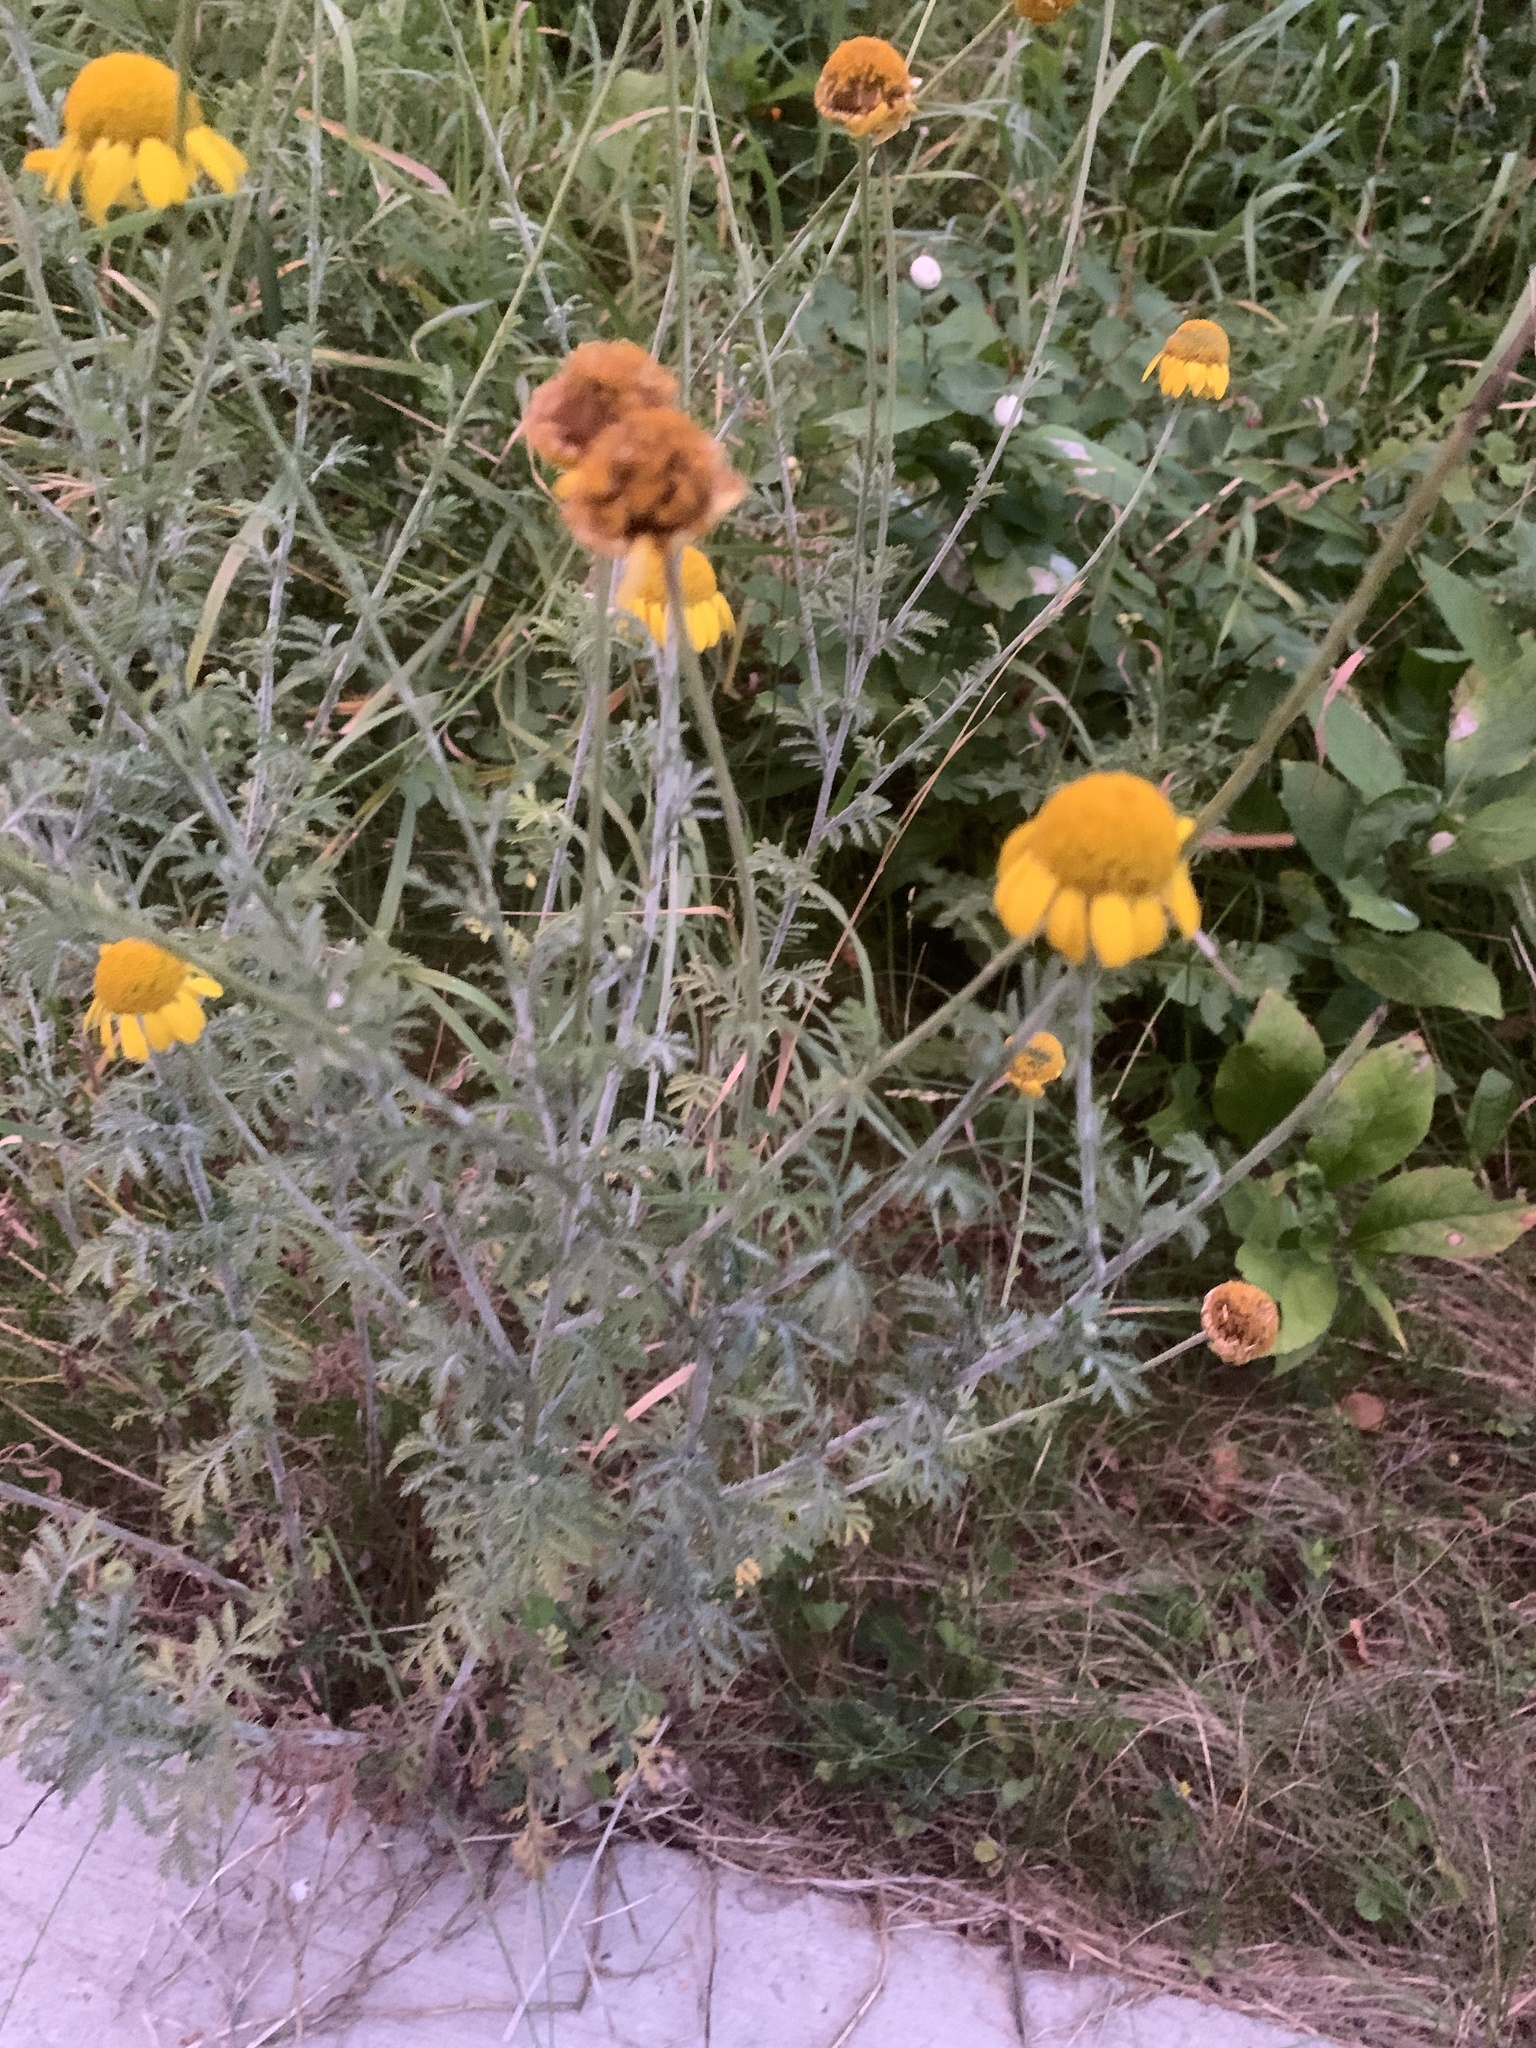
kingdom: Plantae
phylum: Tracheophyta
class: Magnoliopsida
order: Asterales
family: Asteraceae
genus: Cota
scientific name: Cota tinctoria
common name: Golden chamomile
